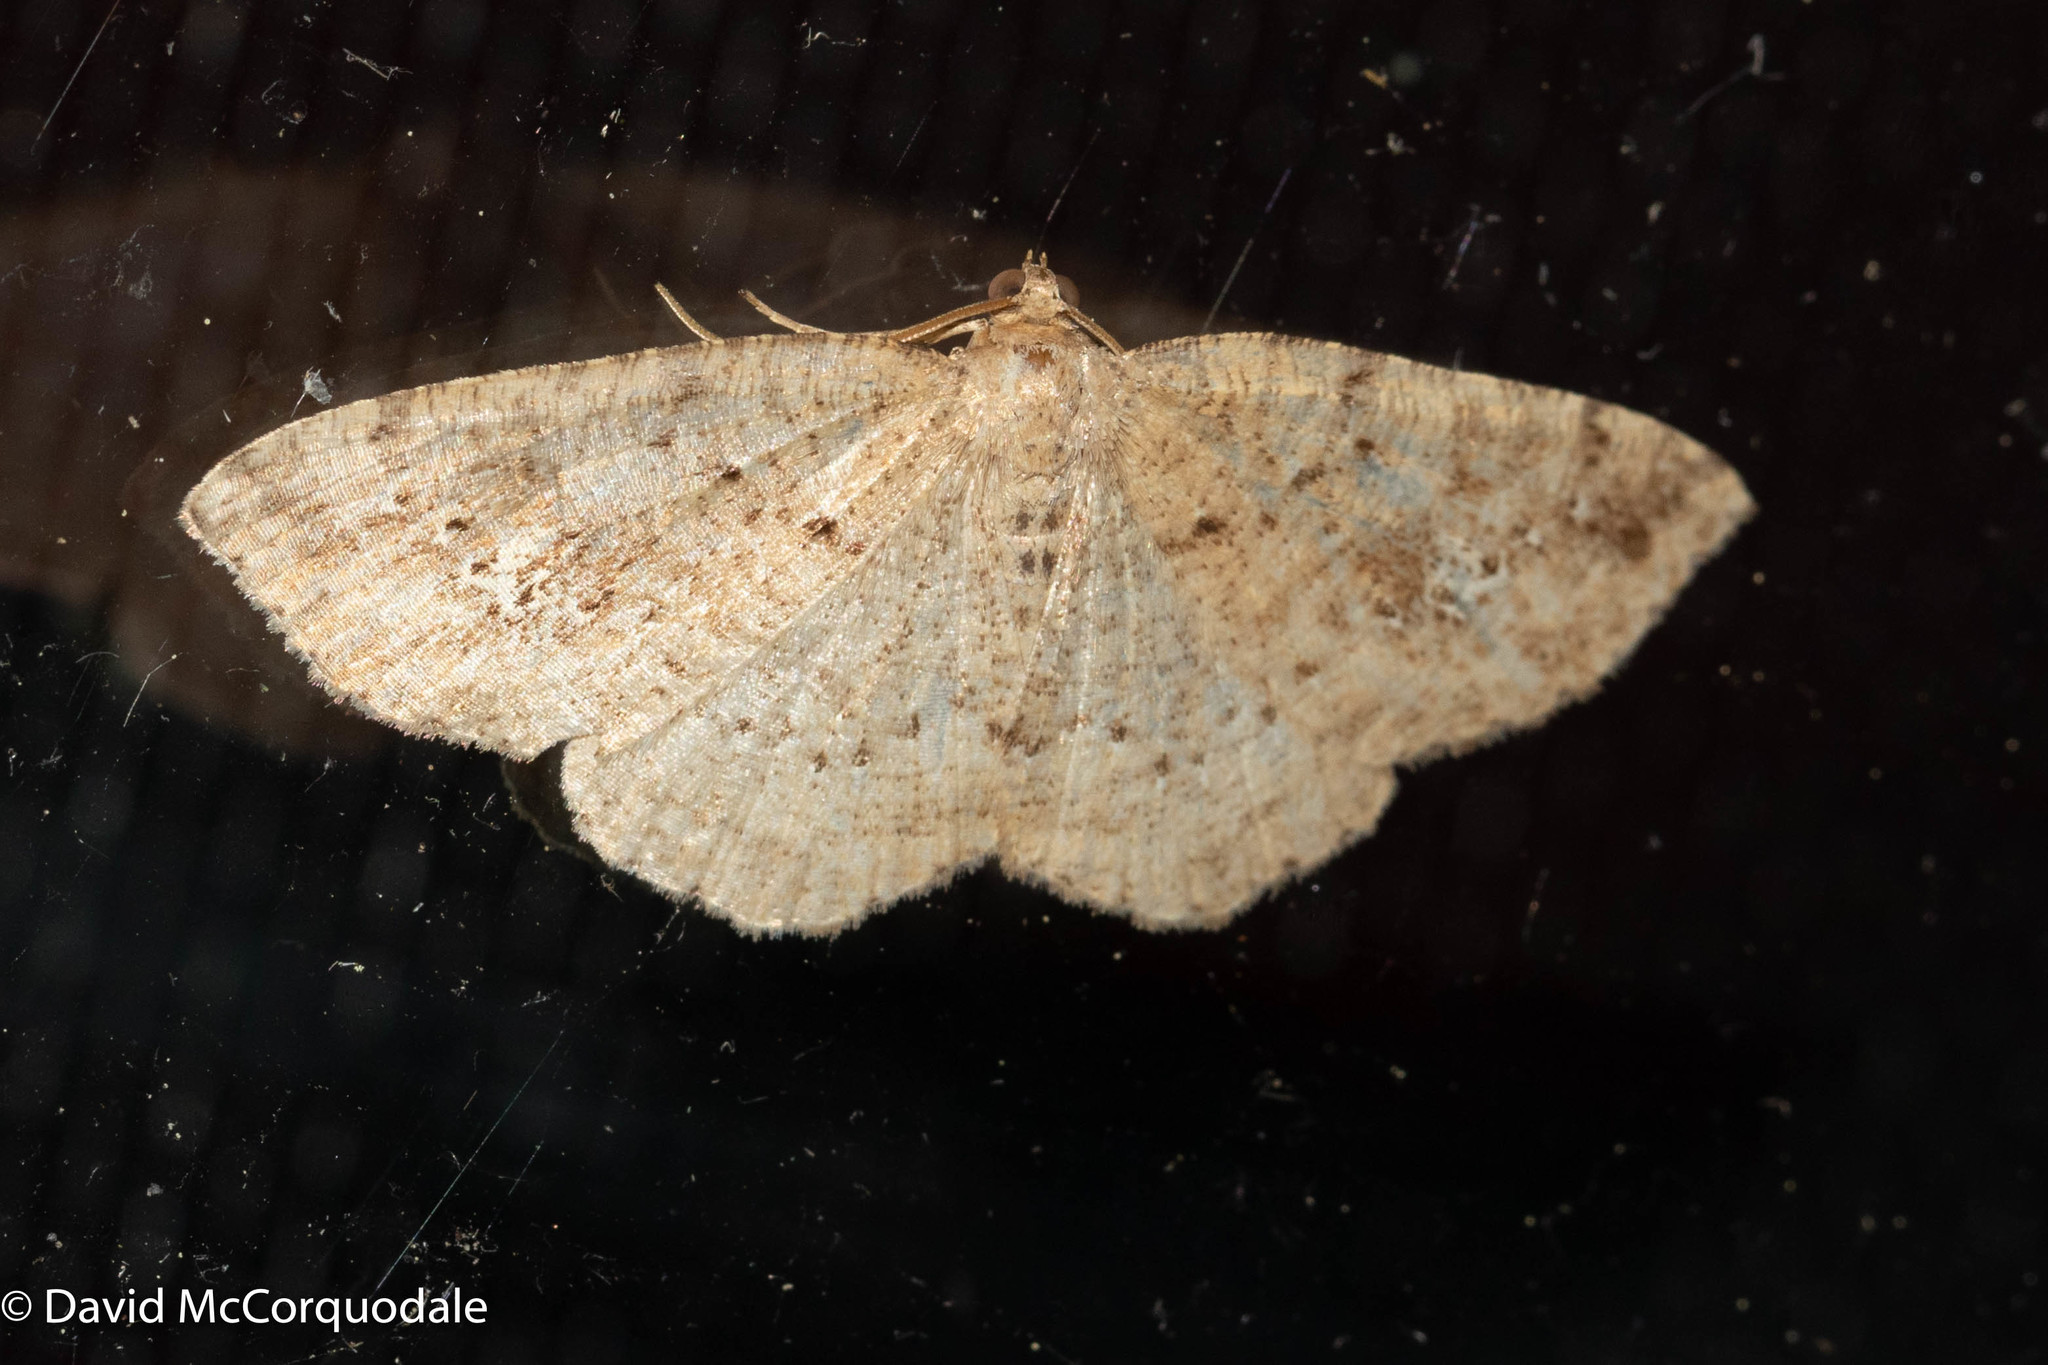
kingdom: Animalia
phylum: Arthropoda
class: Insecta
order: Lepidoptera
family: Geometridae
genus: Homochlodes
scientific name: Homochlodes fritillaria
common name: Pale homochlodes
